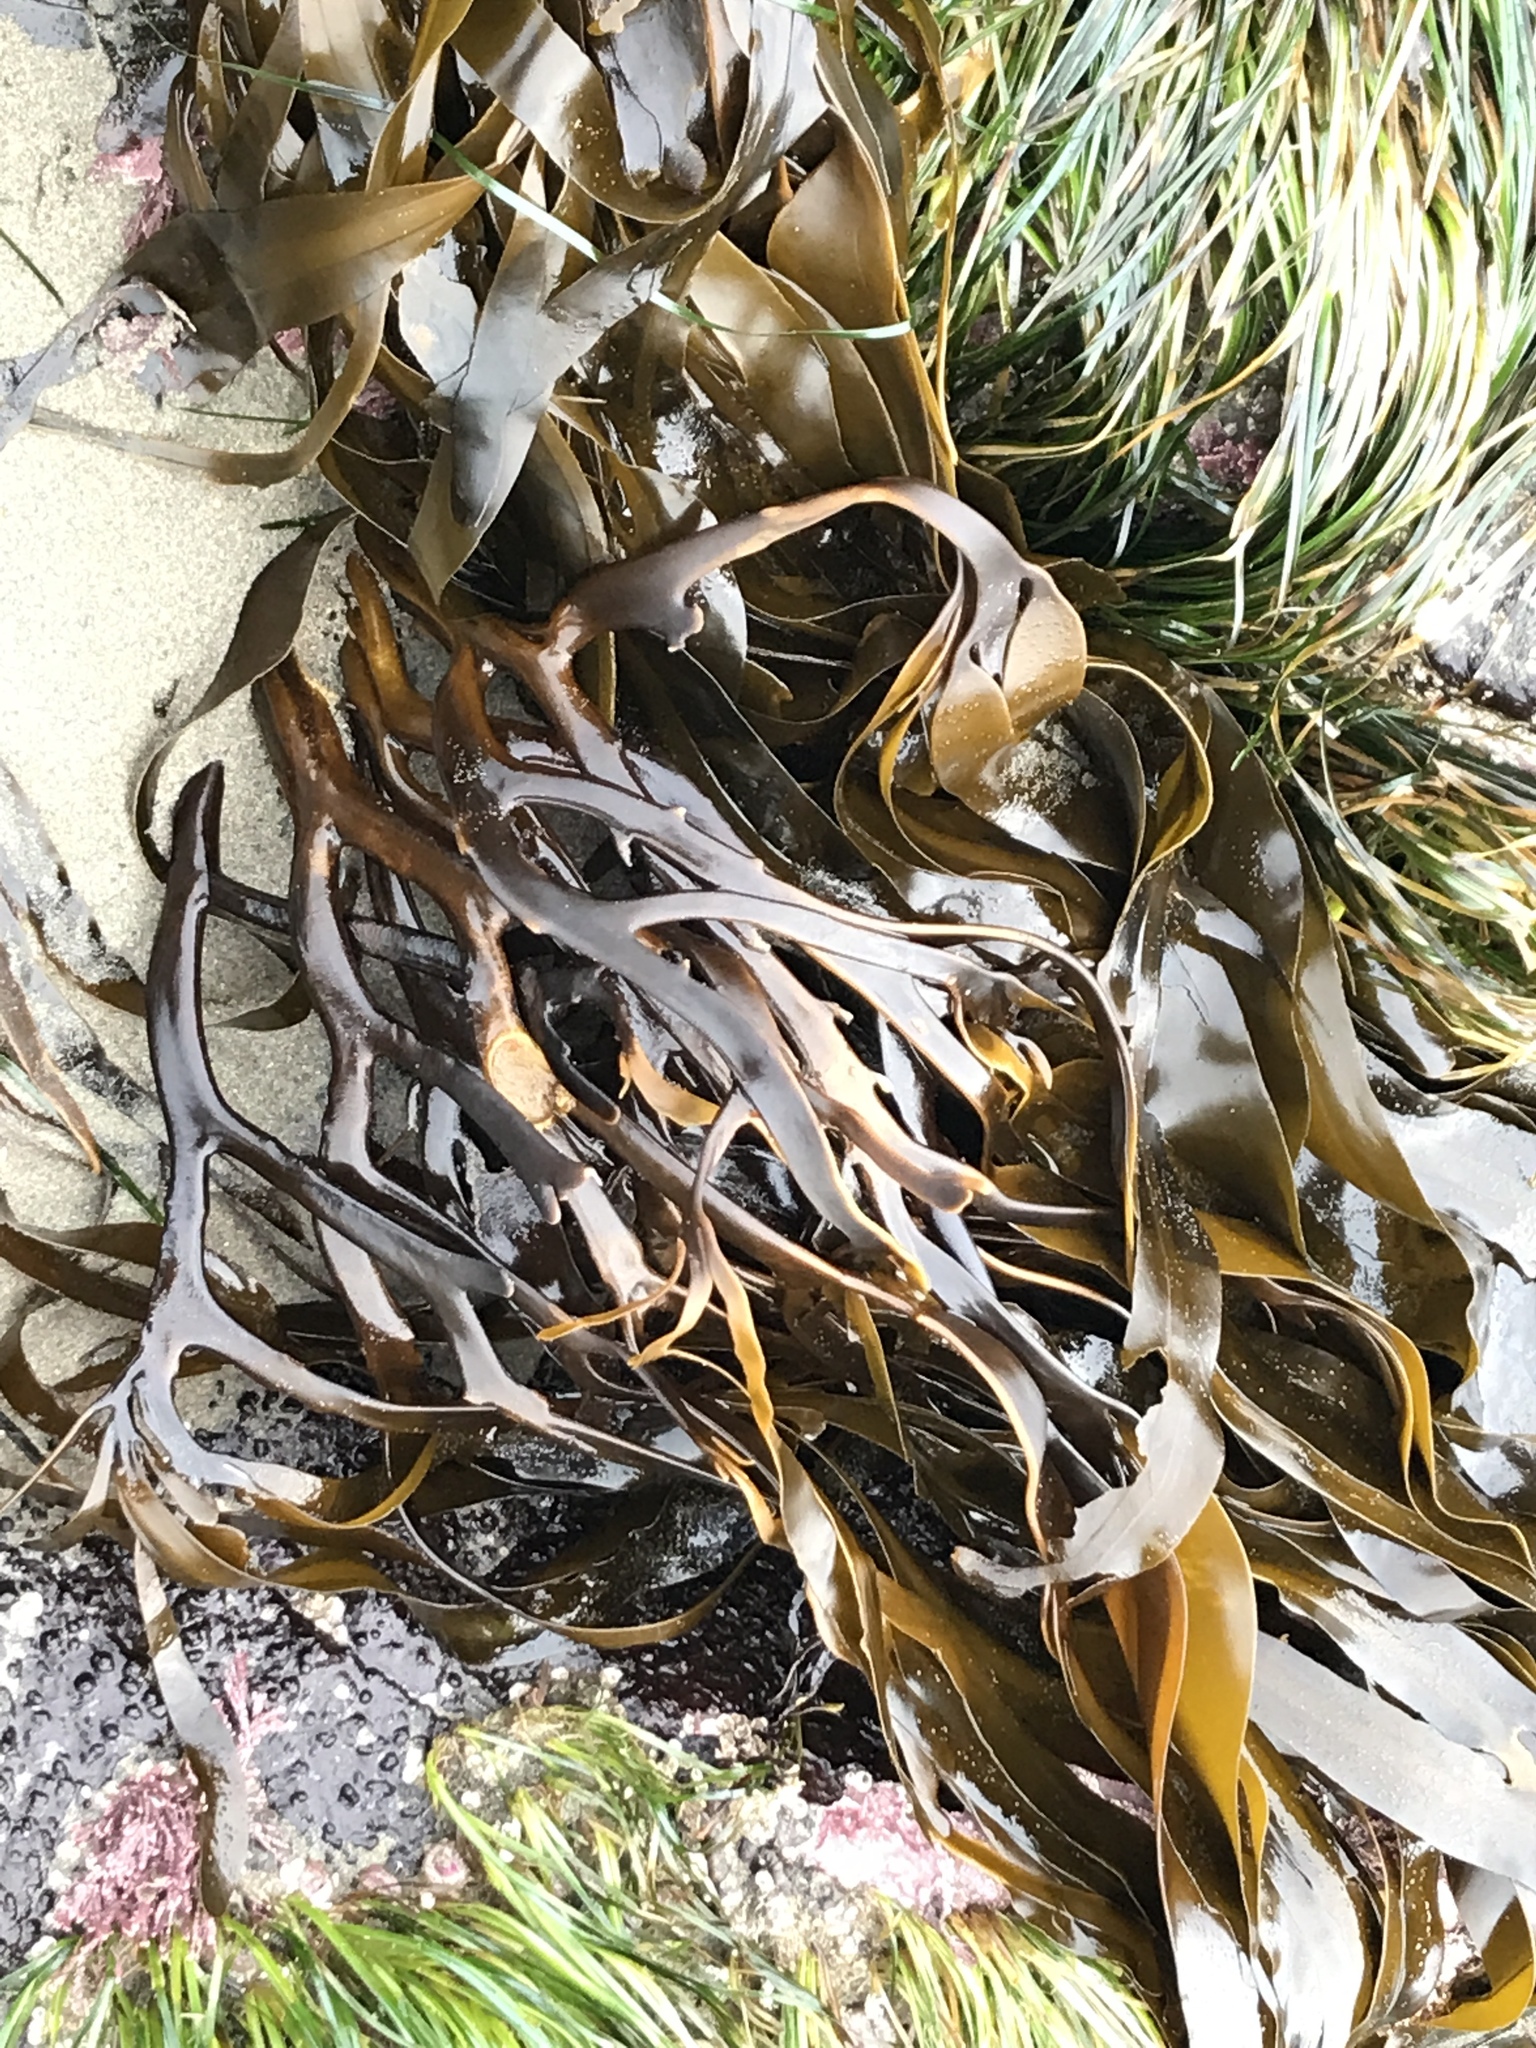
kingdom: Chromista
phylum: Ochrophyta
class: Phaeophyceae
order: Laminariales
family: Alariaceae
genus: Lessoniopsis
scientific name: Lessoniopsis littoralis
